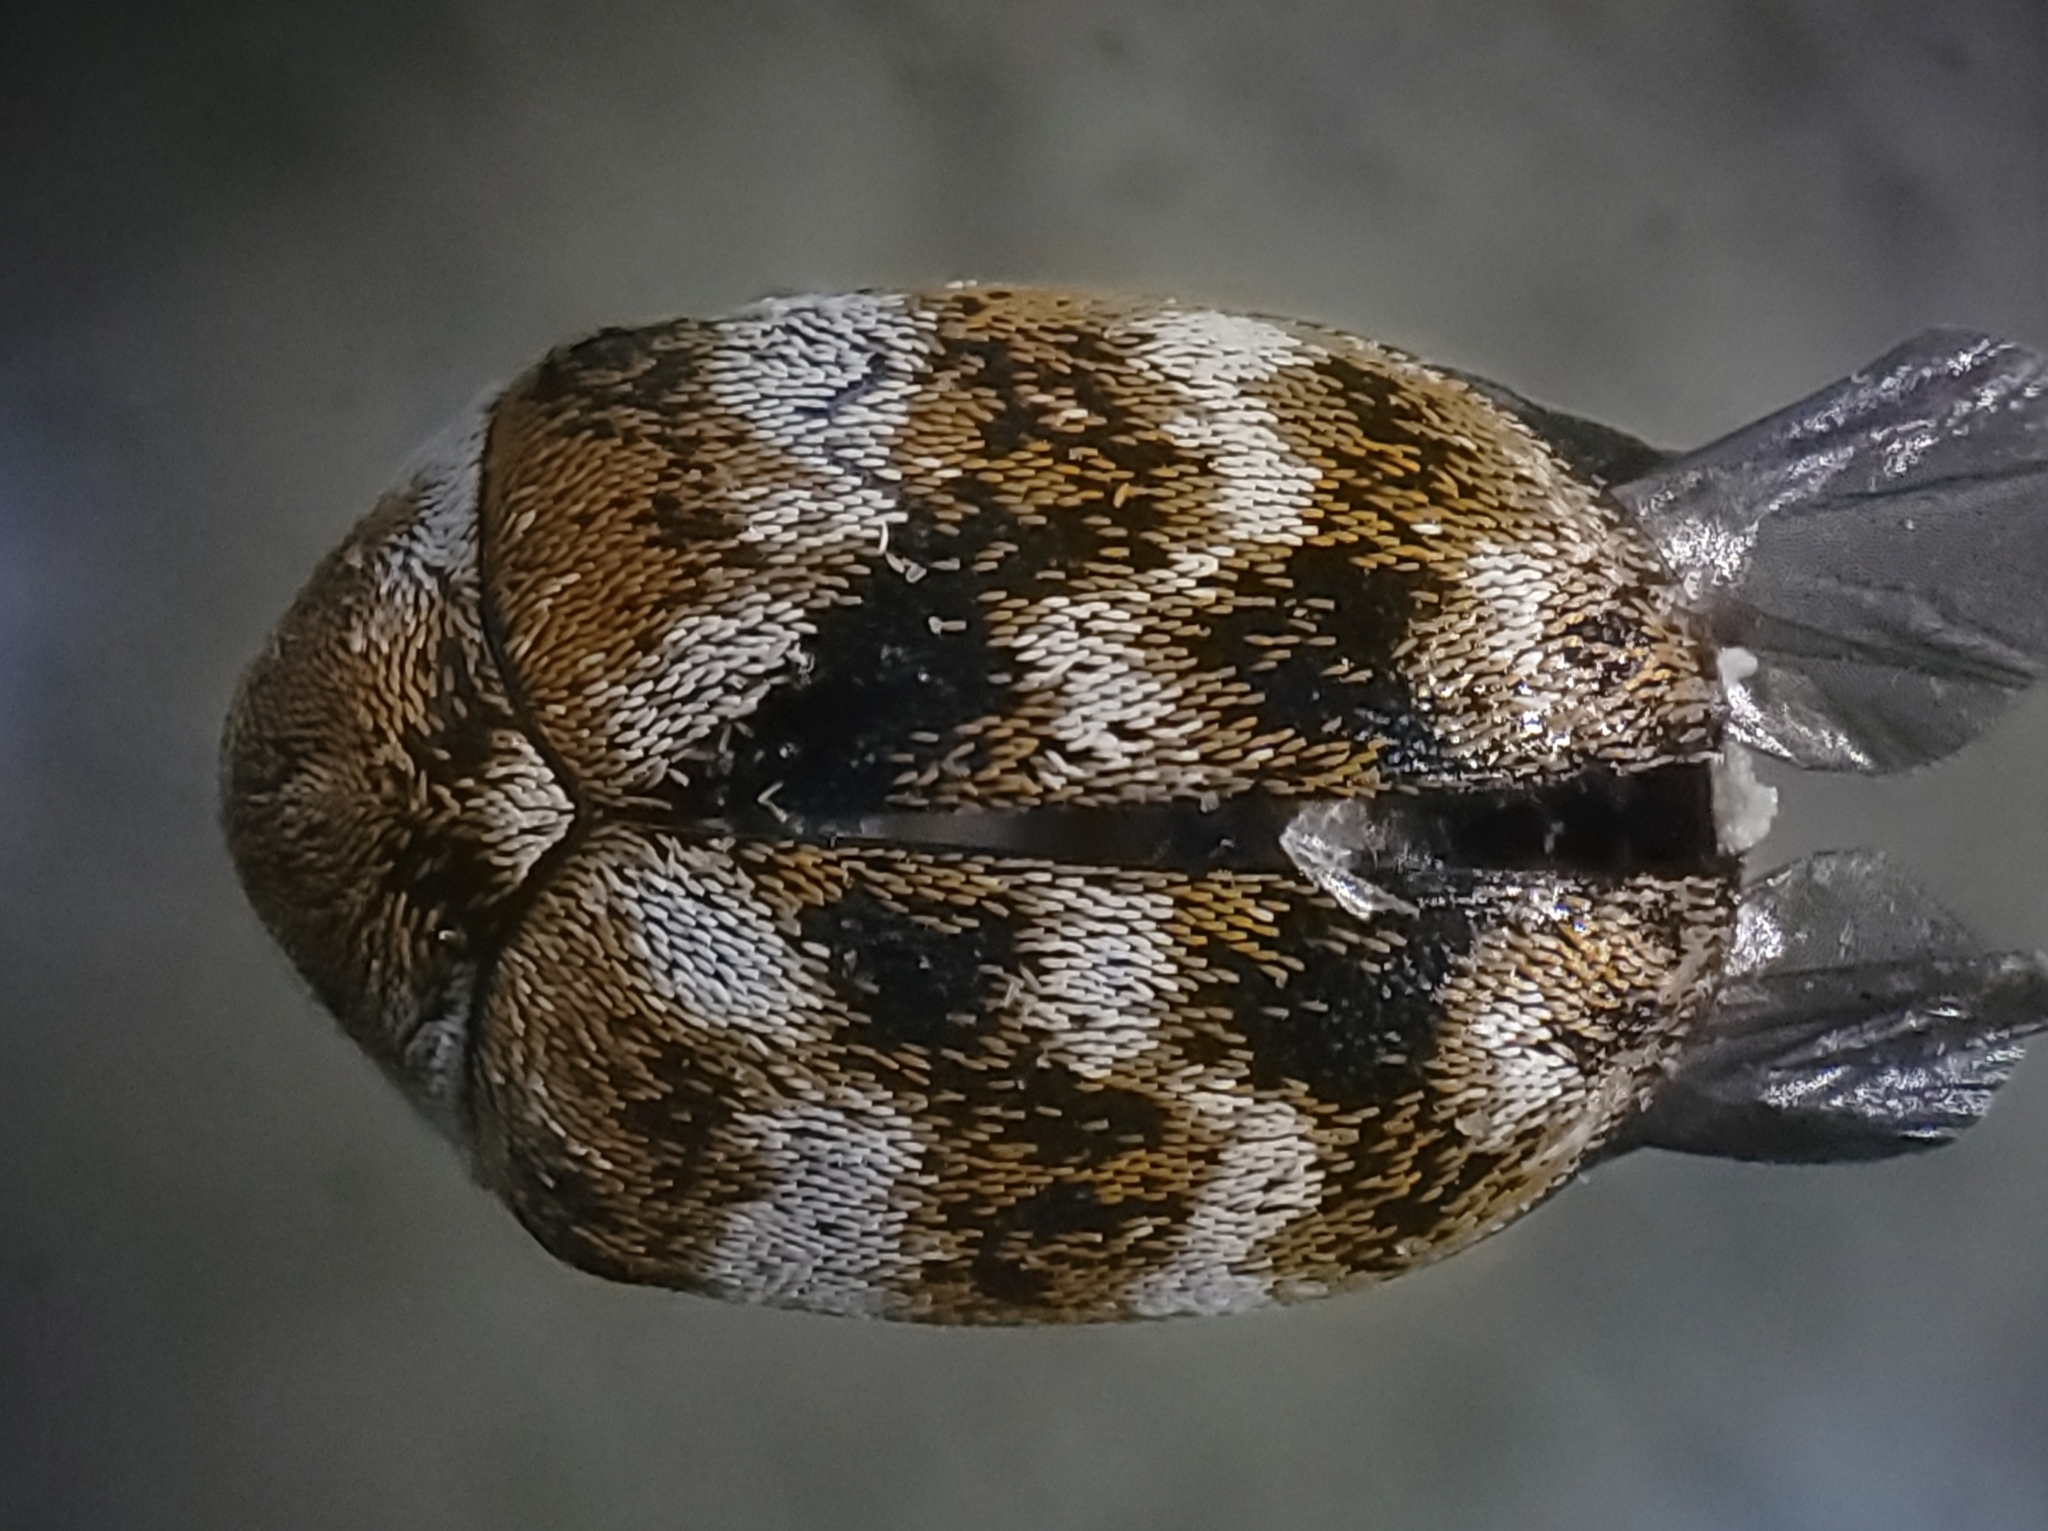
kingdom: Animalia
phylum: Arthropoda
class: Insecta
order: Coleoptera
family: Dermestidae
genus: Anthrenus
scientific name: Anthrenus verbasci
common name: Varied carpet beetle
